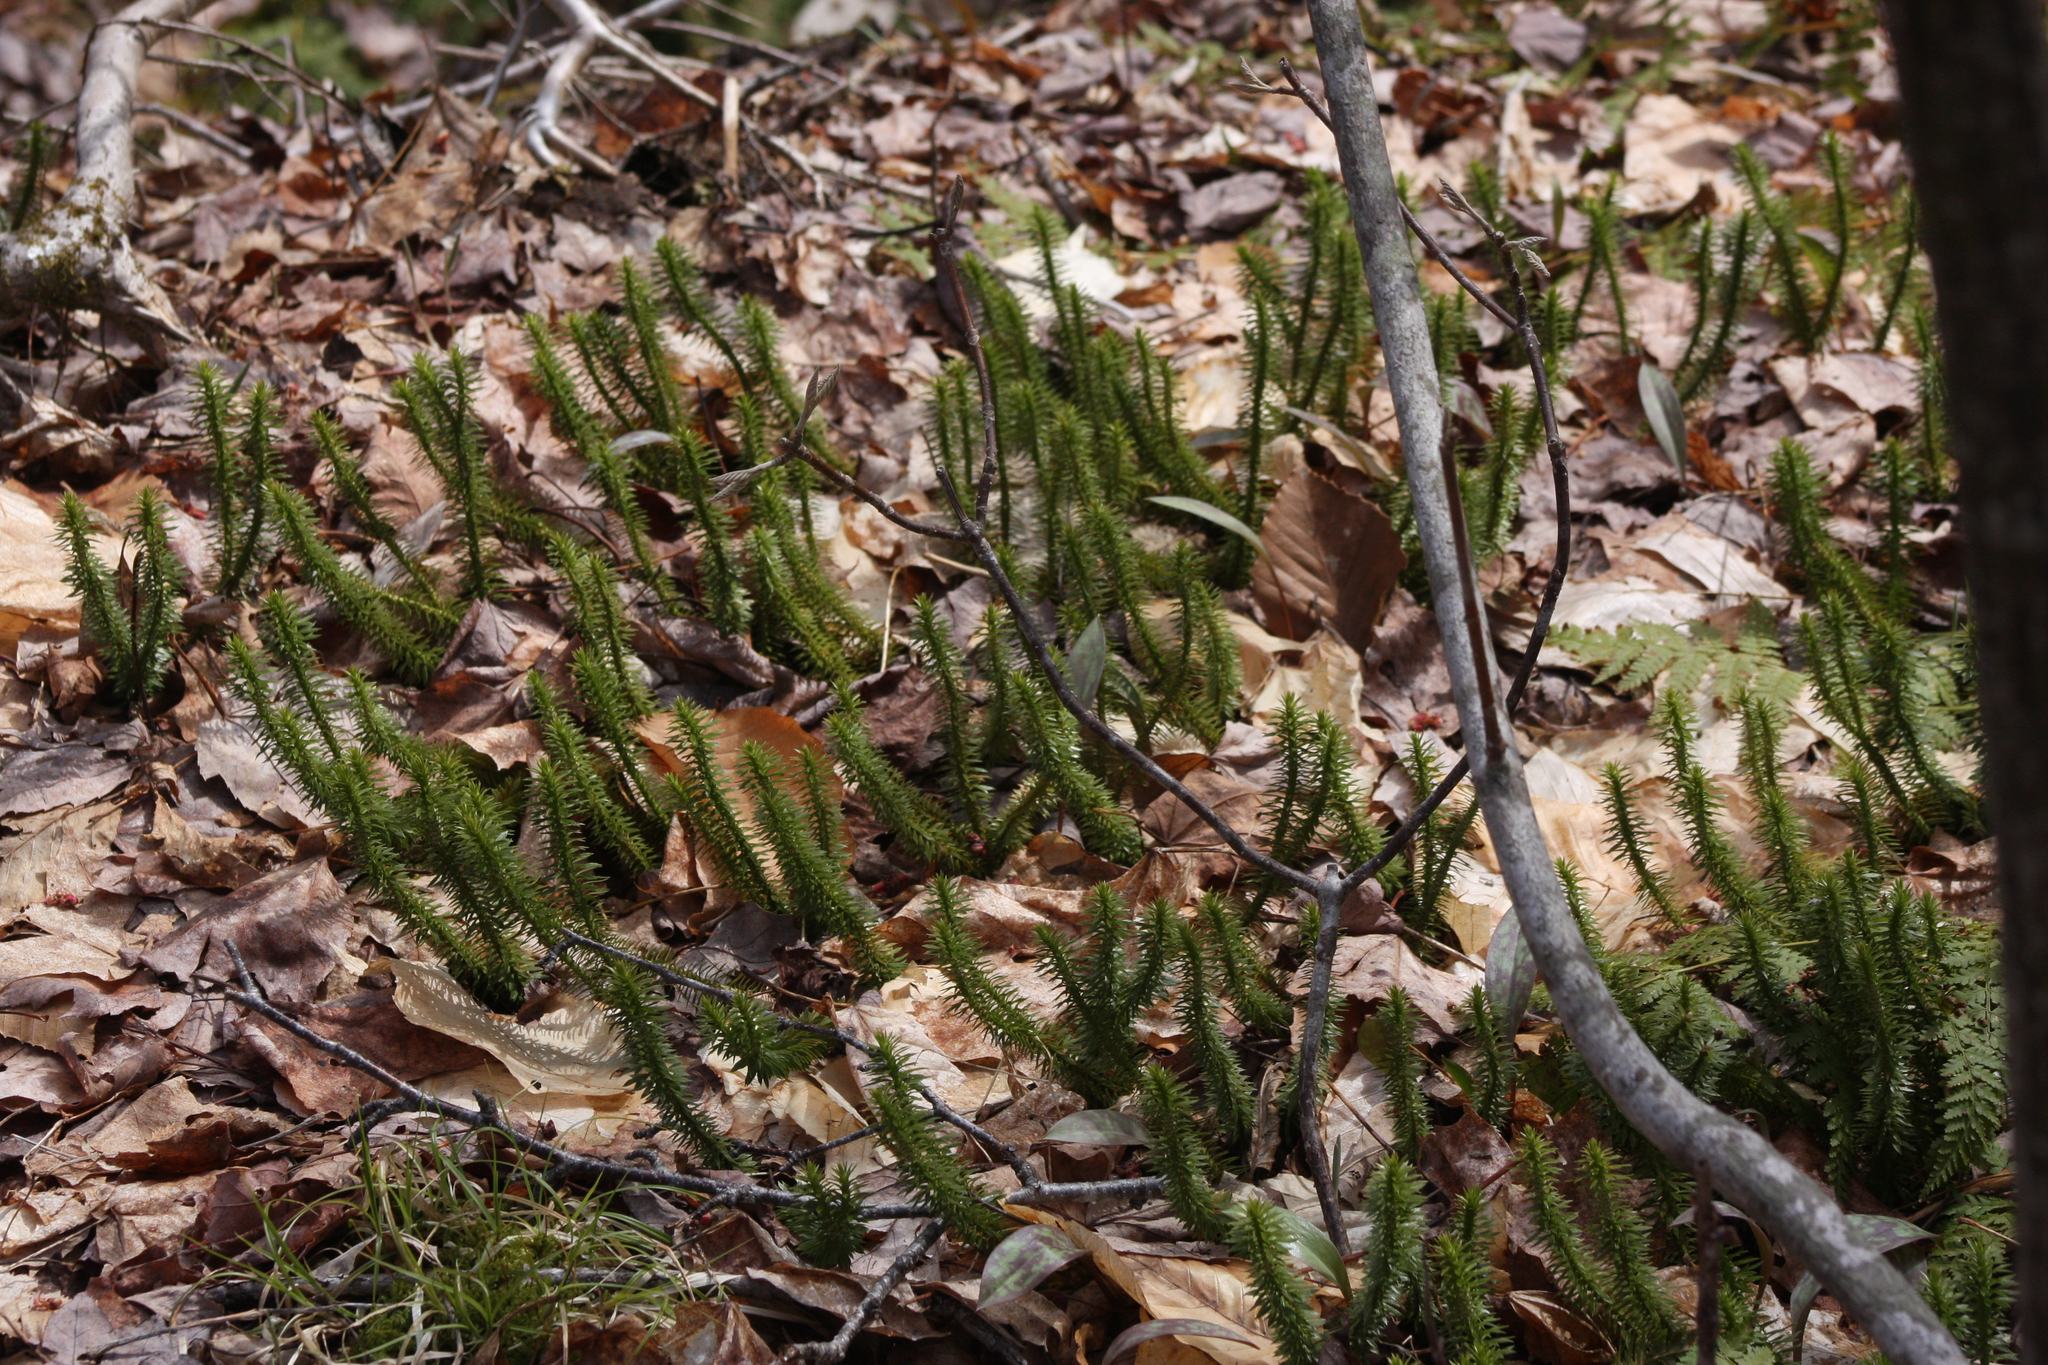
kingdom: Plantae
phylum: Tracheophyta
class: Lycopodiopsida
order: Lycopodiales
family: Lycopodiaceae
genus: Huperzia
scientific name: Huperzia lucidula
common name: Shining clubmoss
